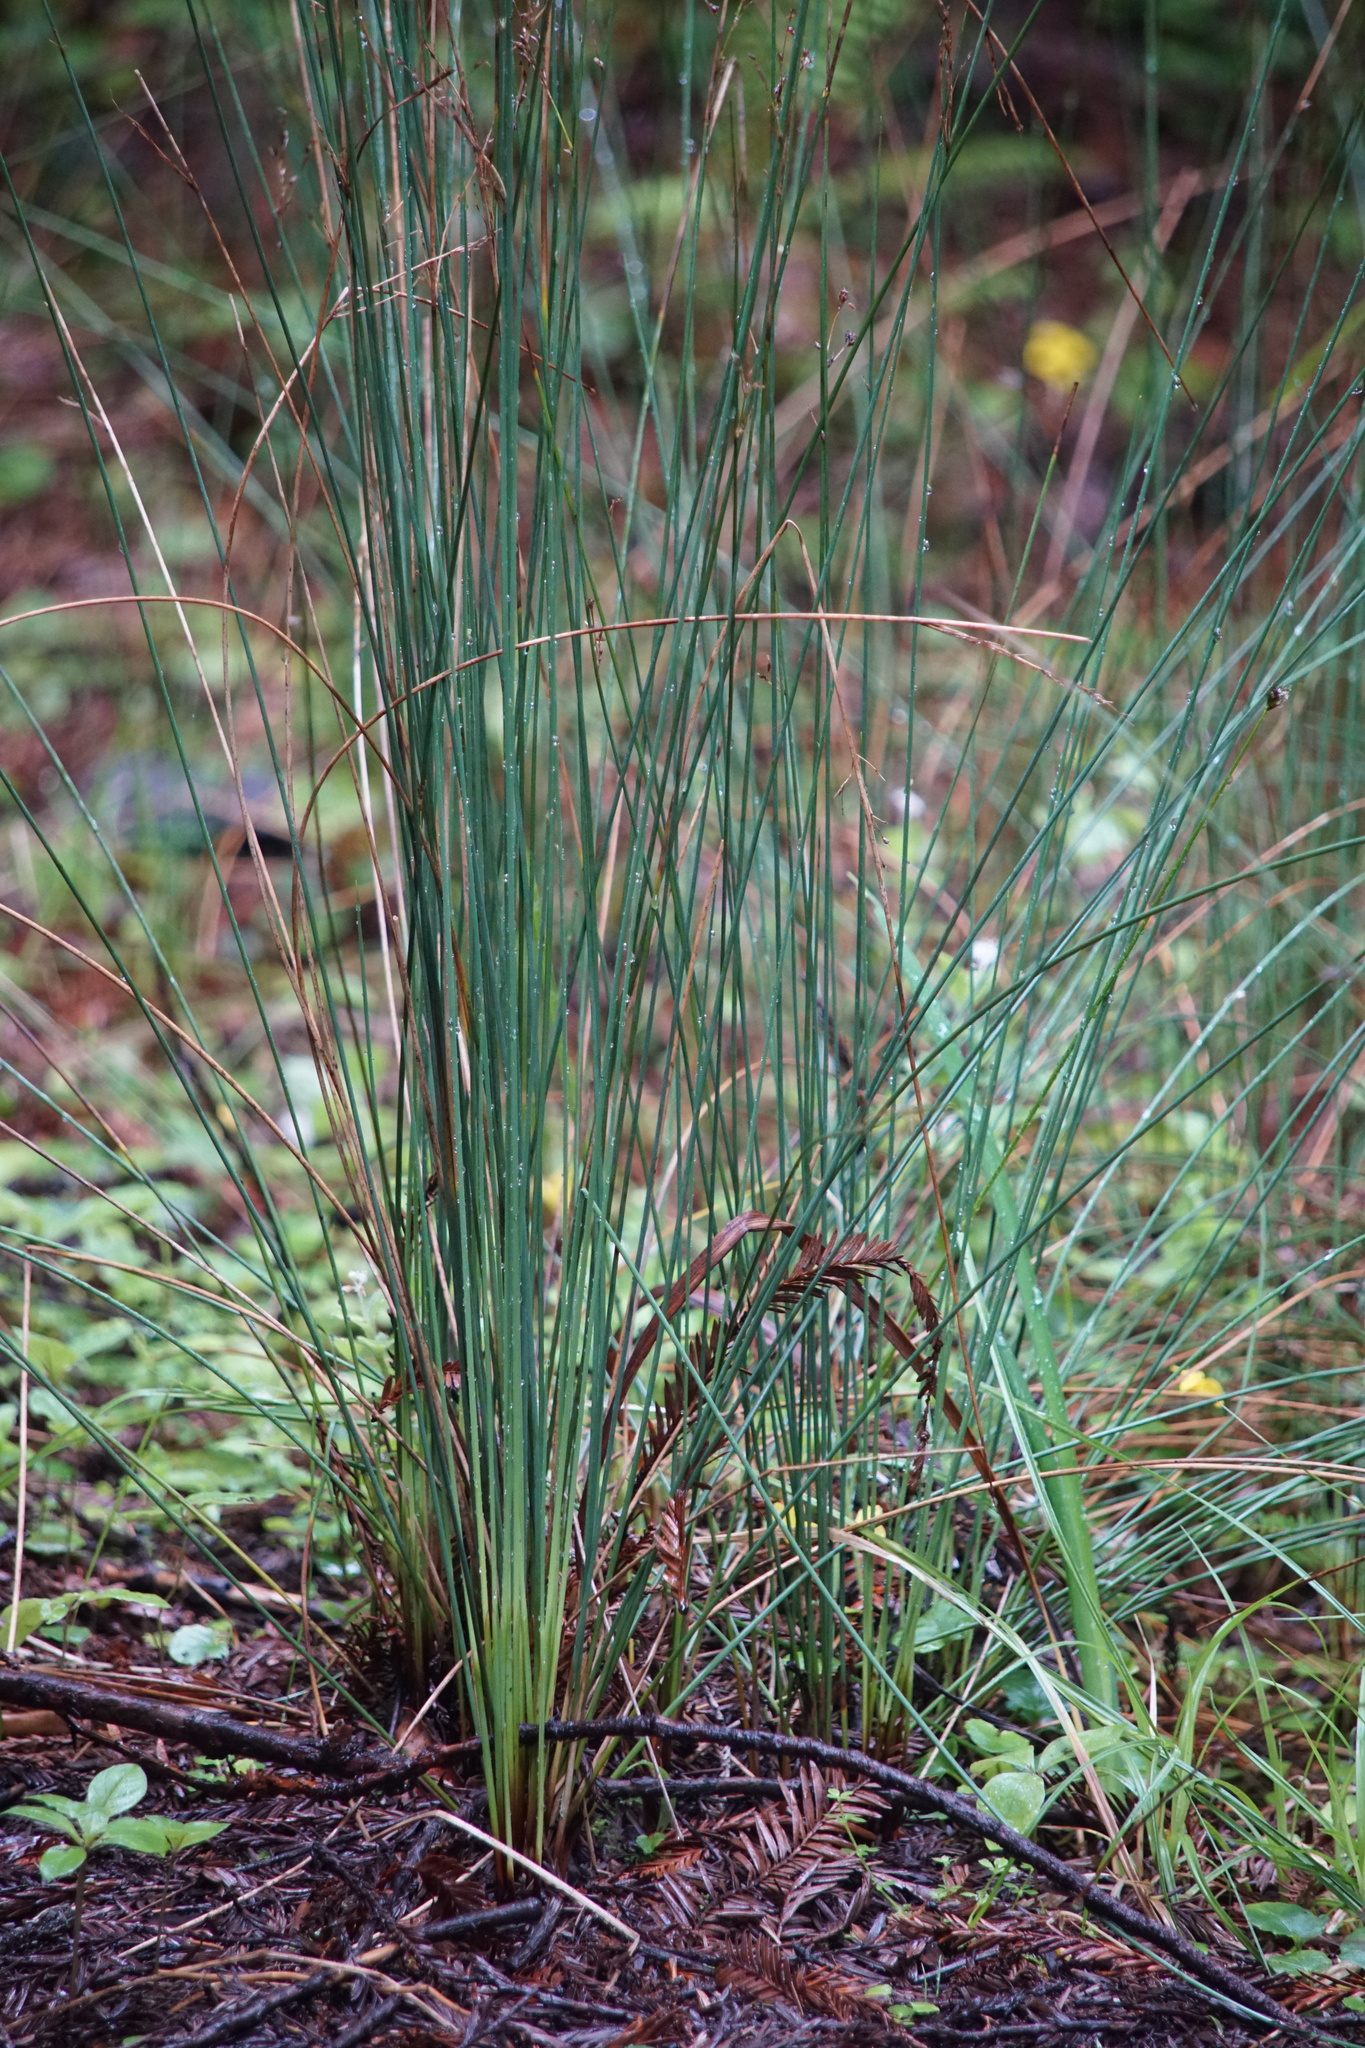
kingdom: Plantae
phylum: Tracheophyta
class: Liliopsida
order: Poales
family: Juncaceae
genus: Juncus
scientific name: Juncus patens
